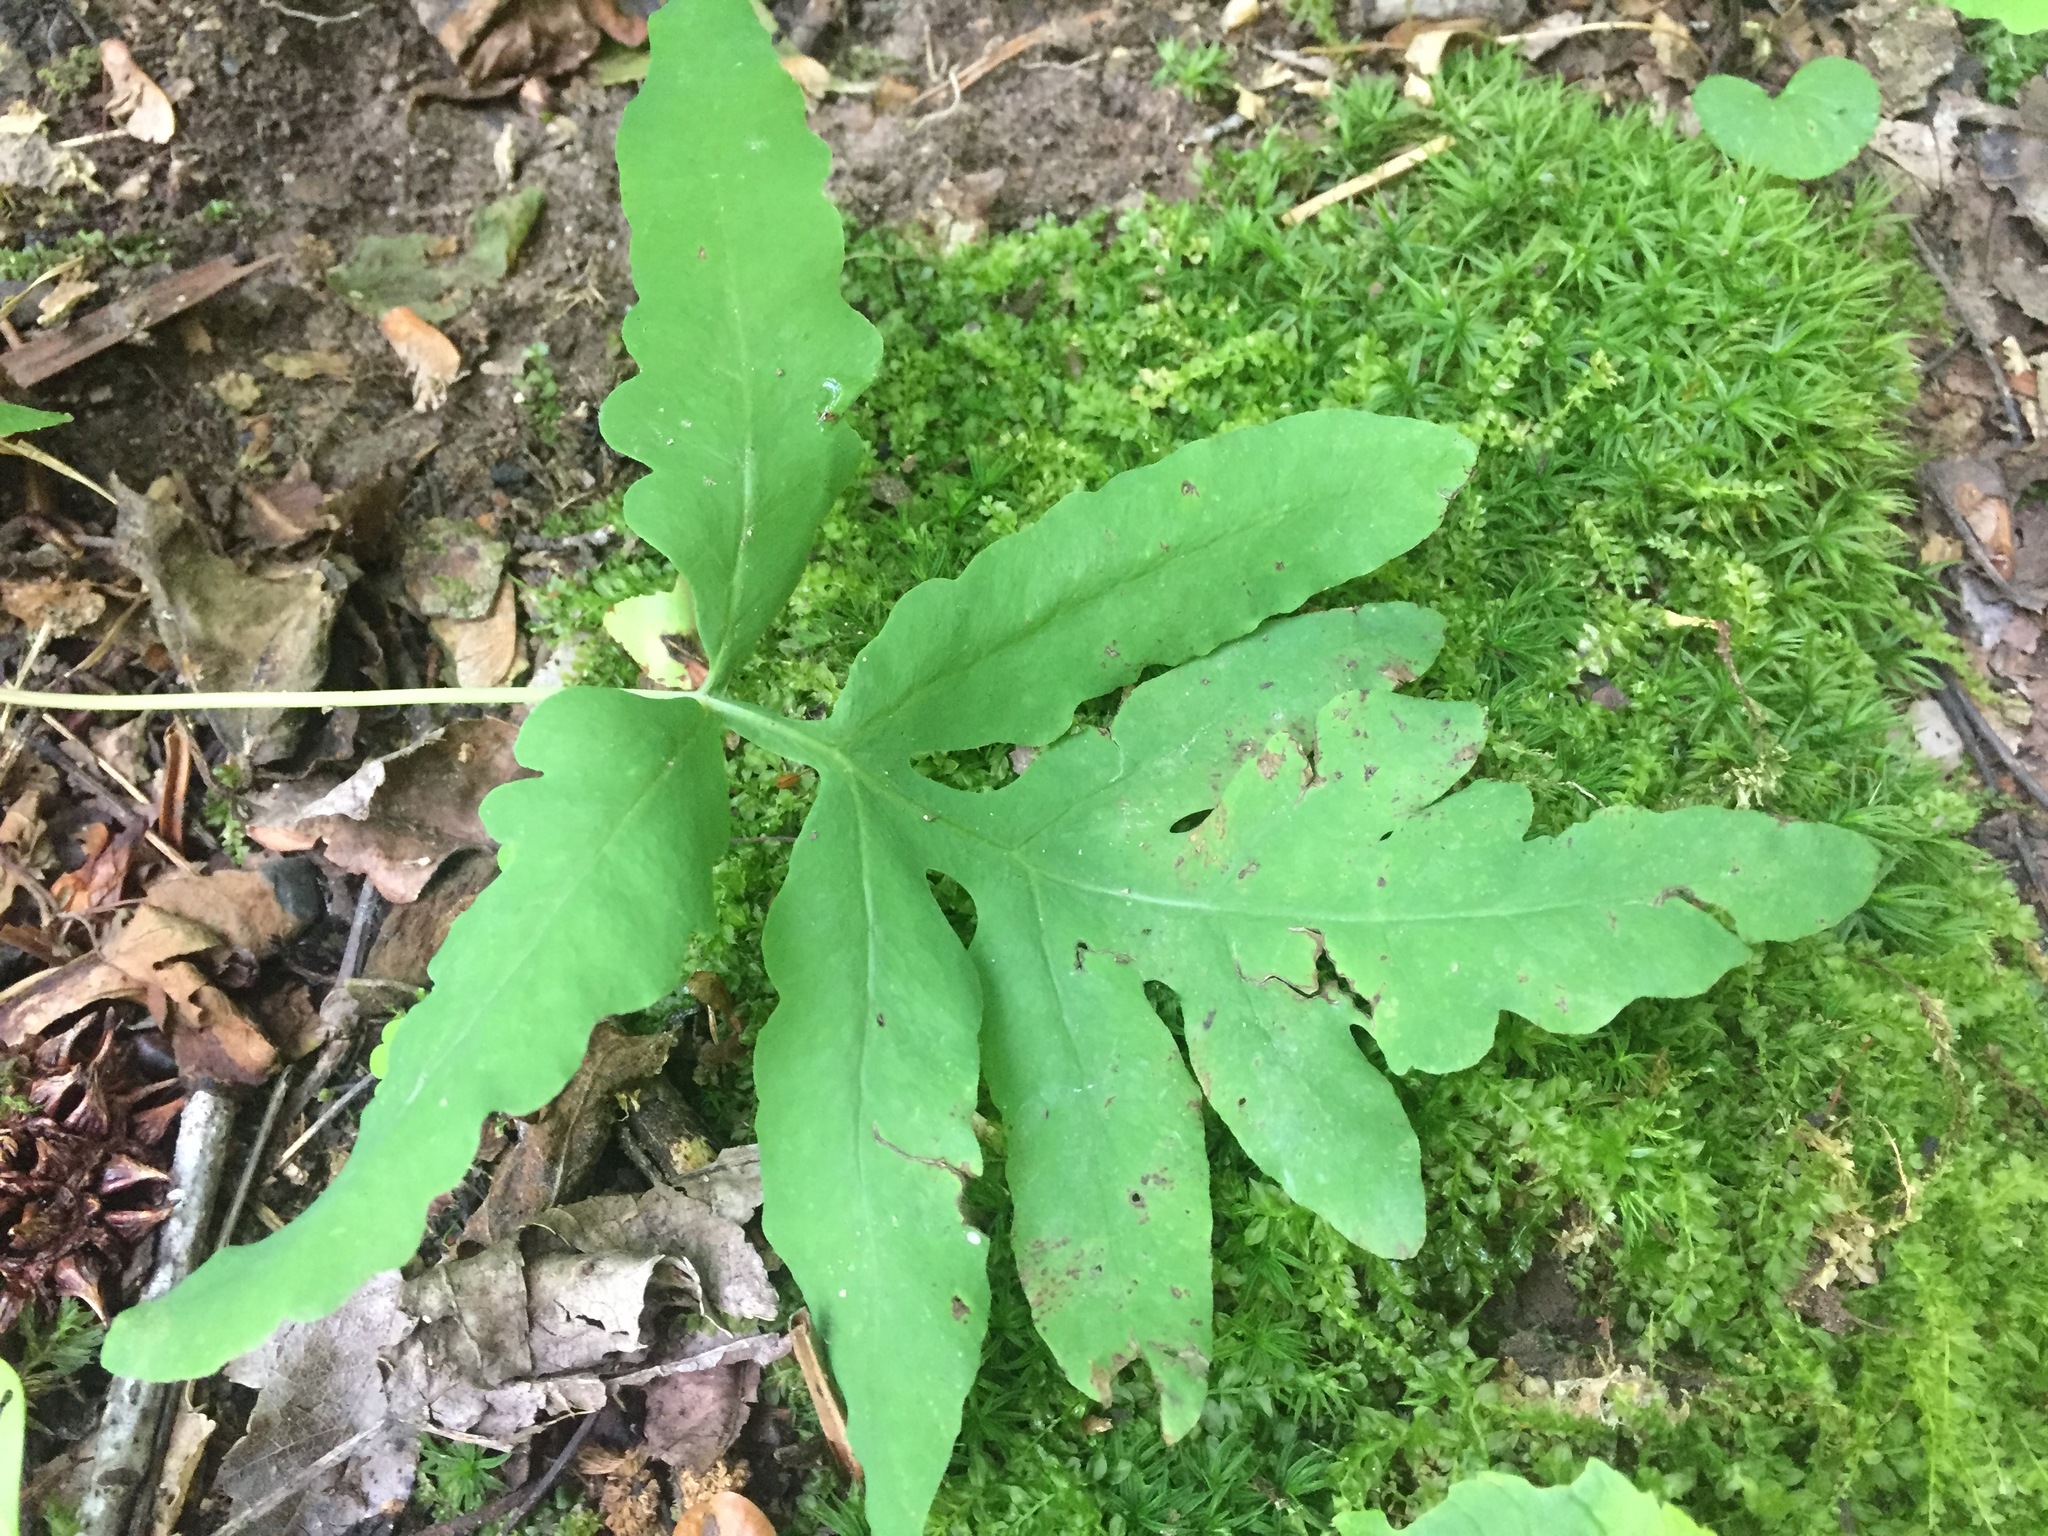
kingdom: Plantae
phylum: Tracheophyta
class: Polypodiopsida
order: Polypodiales
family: Onocleaceae
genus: Onoclea
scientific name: Onoclea sensibilis
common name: Sensitive fern
